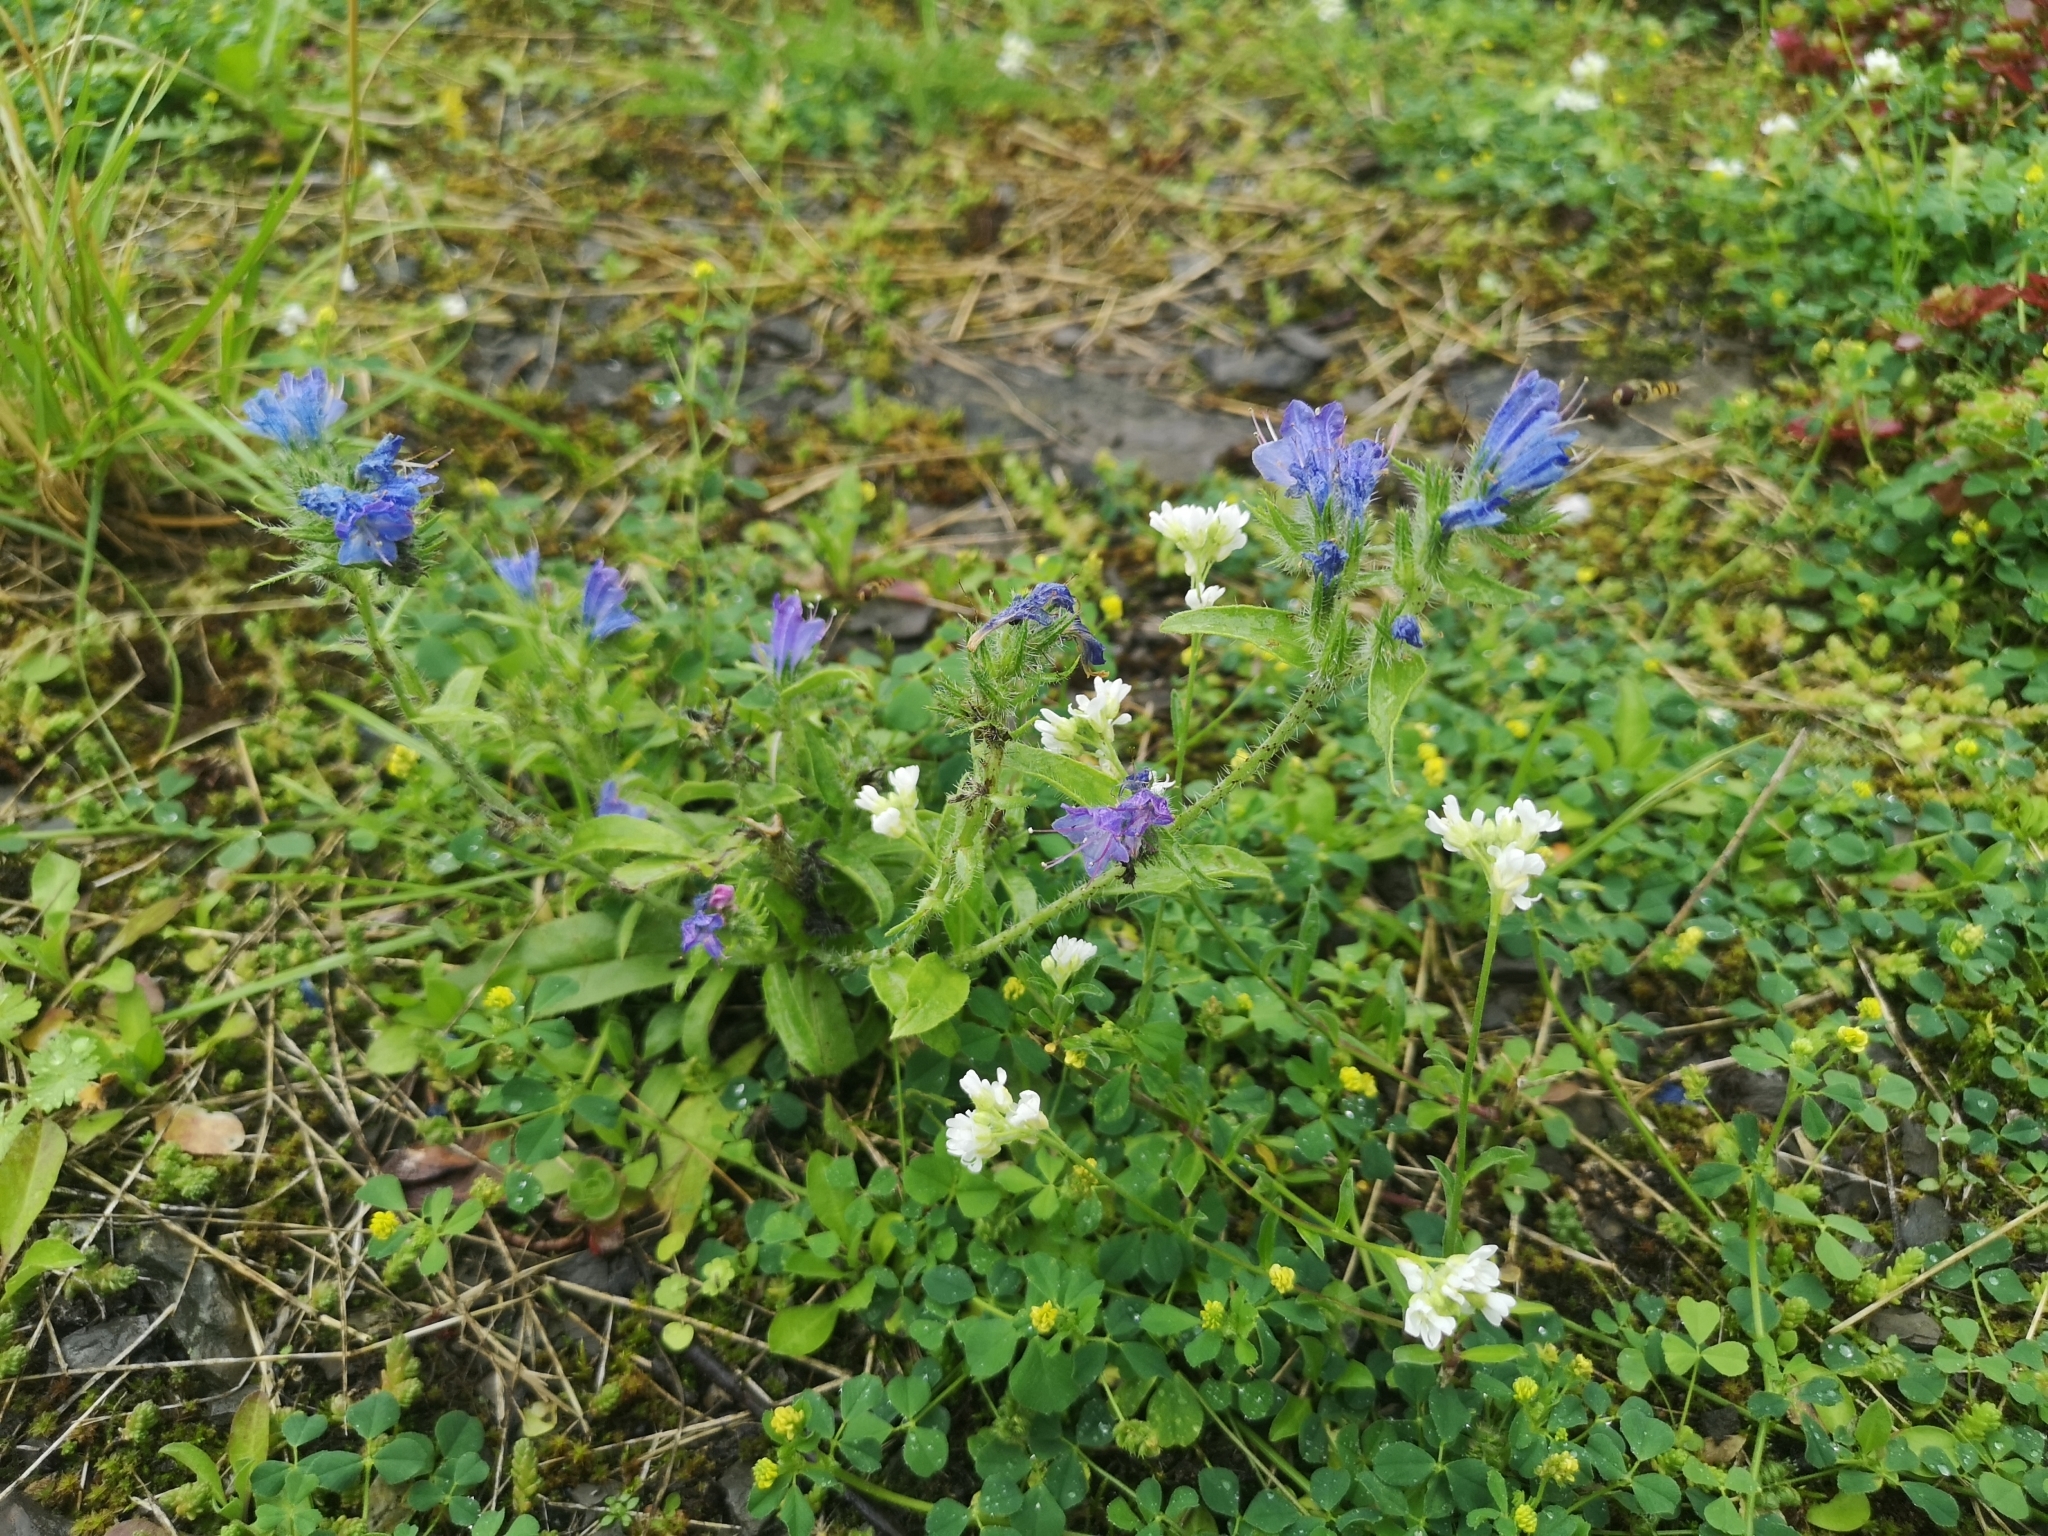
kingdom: Plantae
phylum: Tracheophyta
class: Magnoliopsida
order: Boraginales
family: Boraginaceae
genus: Echium
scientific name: Echium vulgare
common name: Common viper's bugloss
